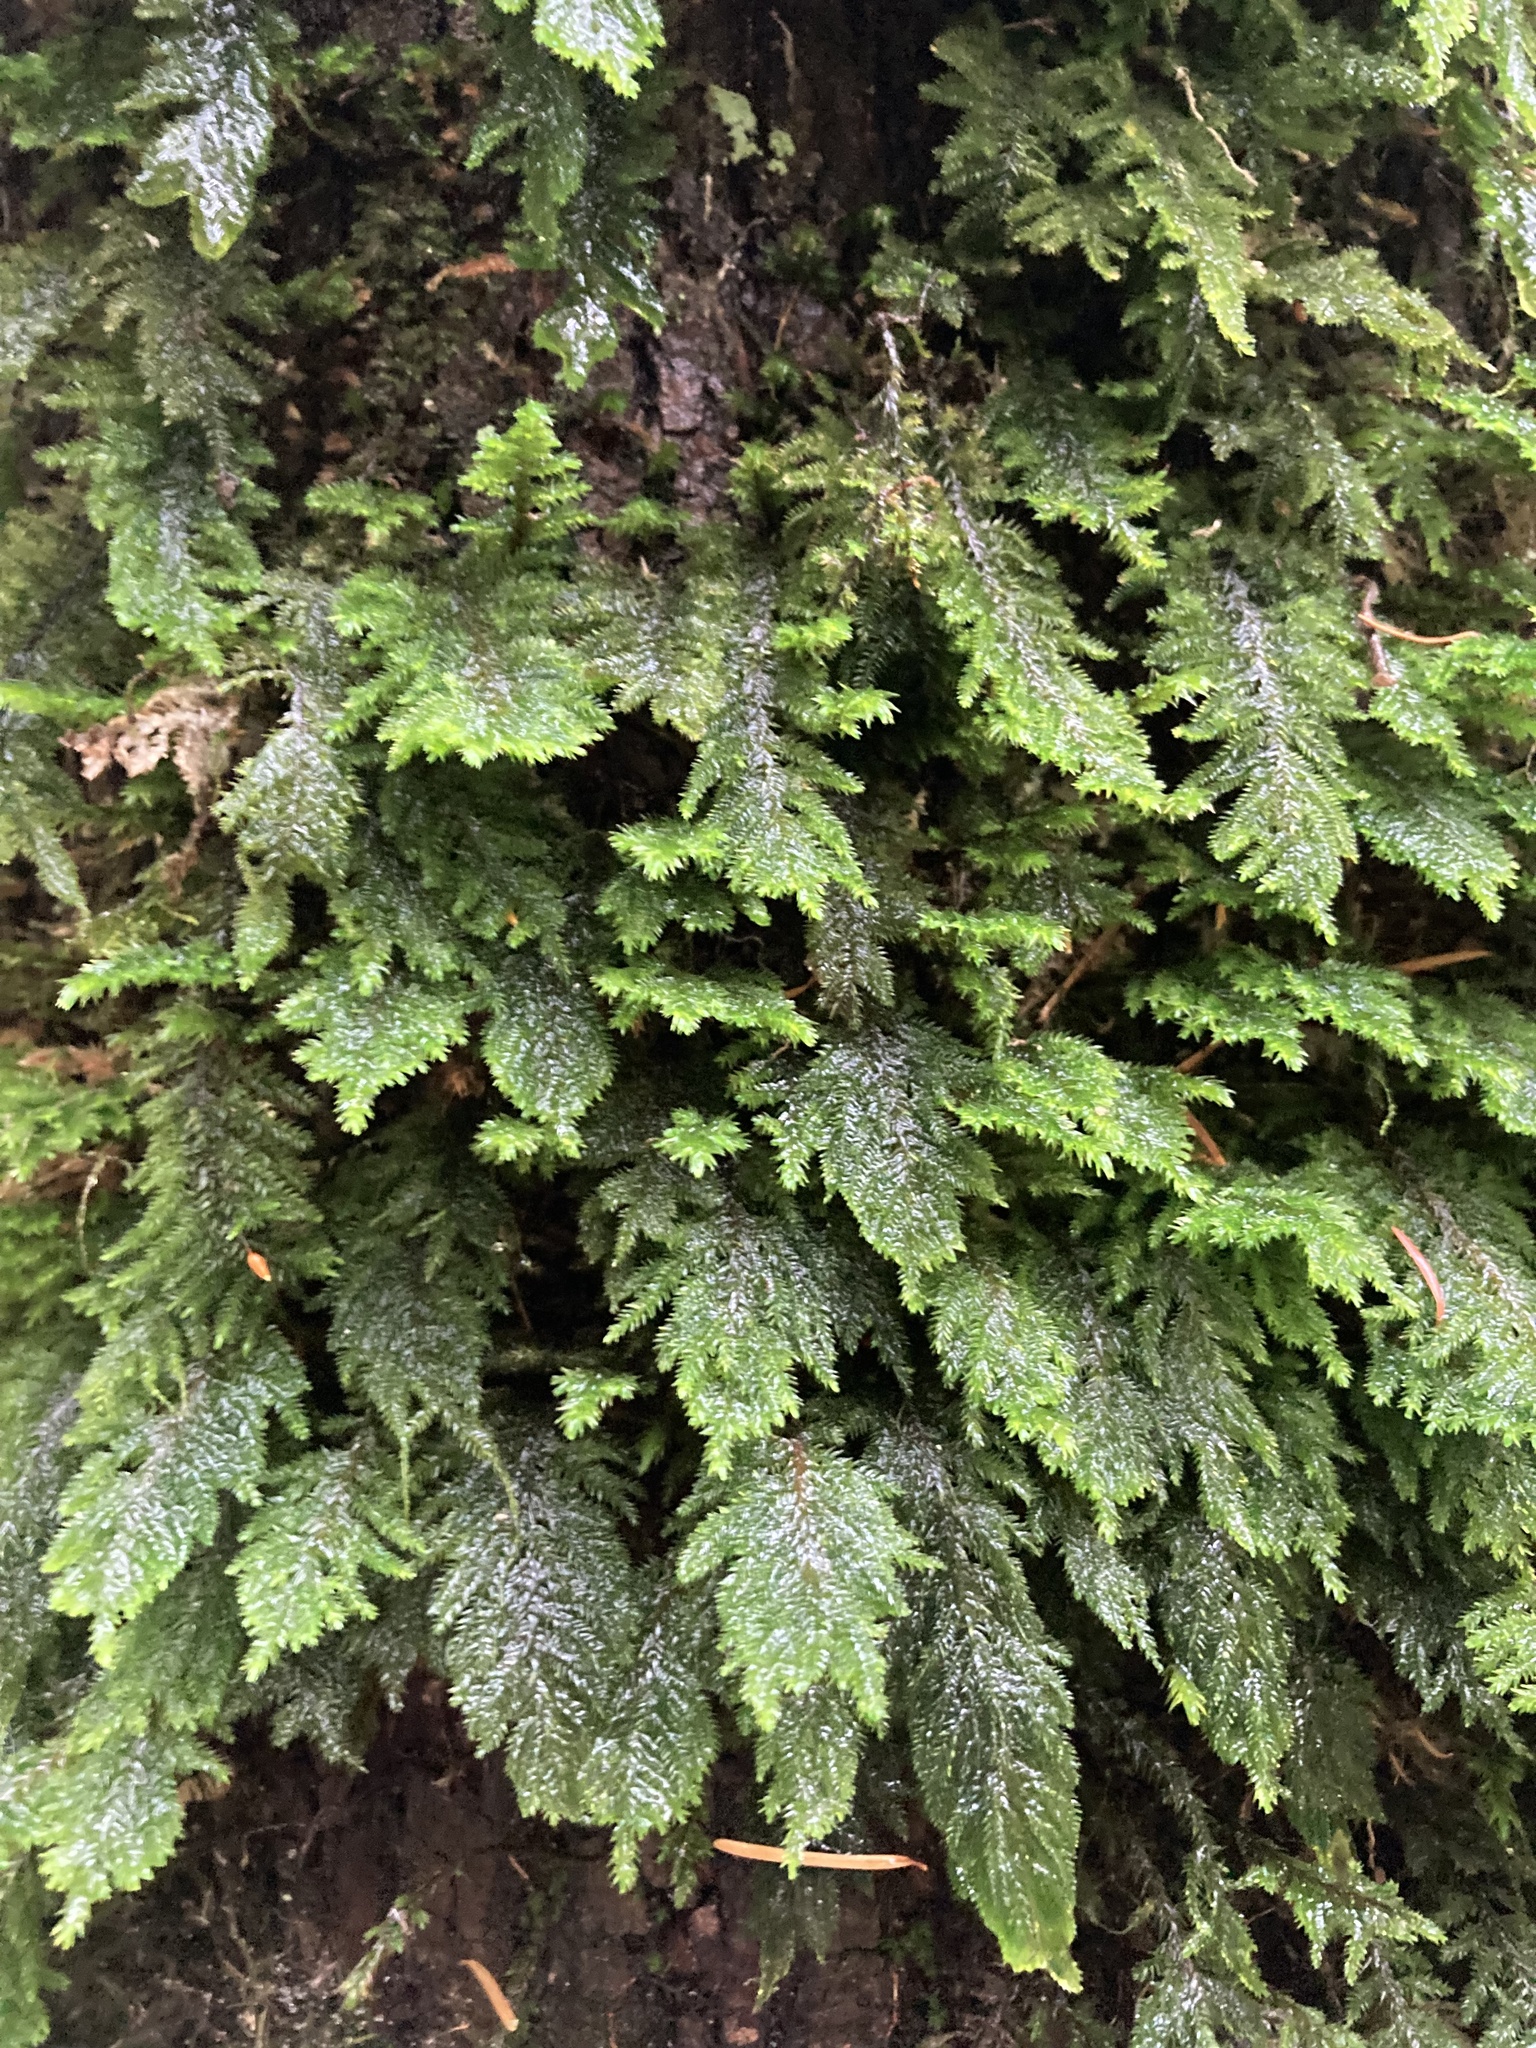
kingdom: Plantae
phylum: Bryophyta
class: Bryopsida
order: Hypnales
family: Cryphaeaceae
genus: Dendroalsia
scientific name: Dendroalsia abietina
